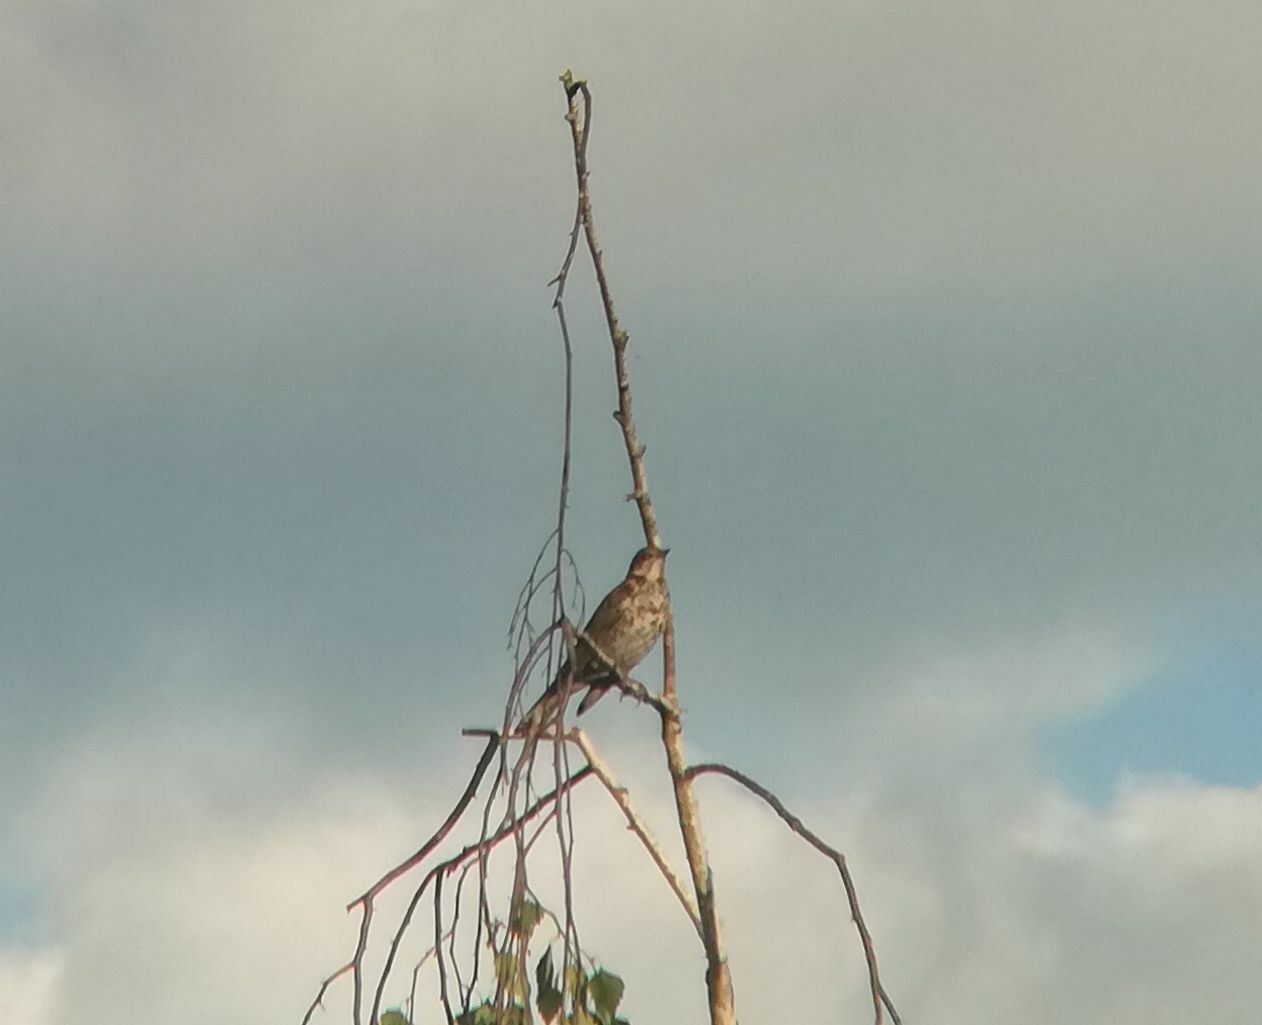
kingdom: Animalia
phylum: Chordata
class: Aves
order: Passeriformes
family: Turdidae
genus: Turdus
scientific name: Turdus pilaris
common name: Fieldfare
